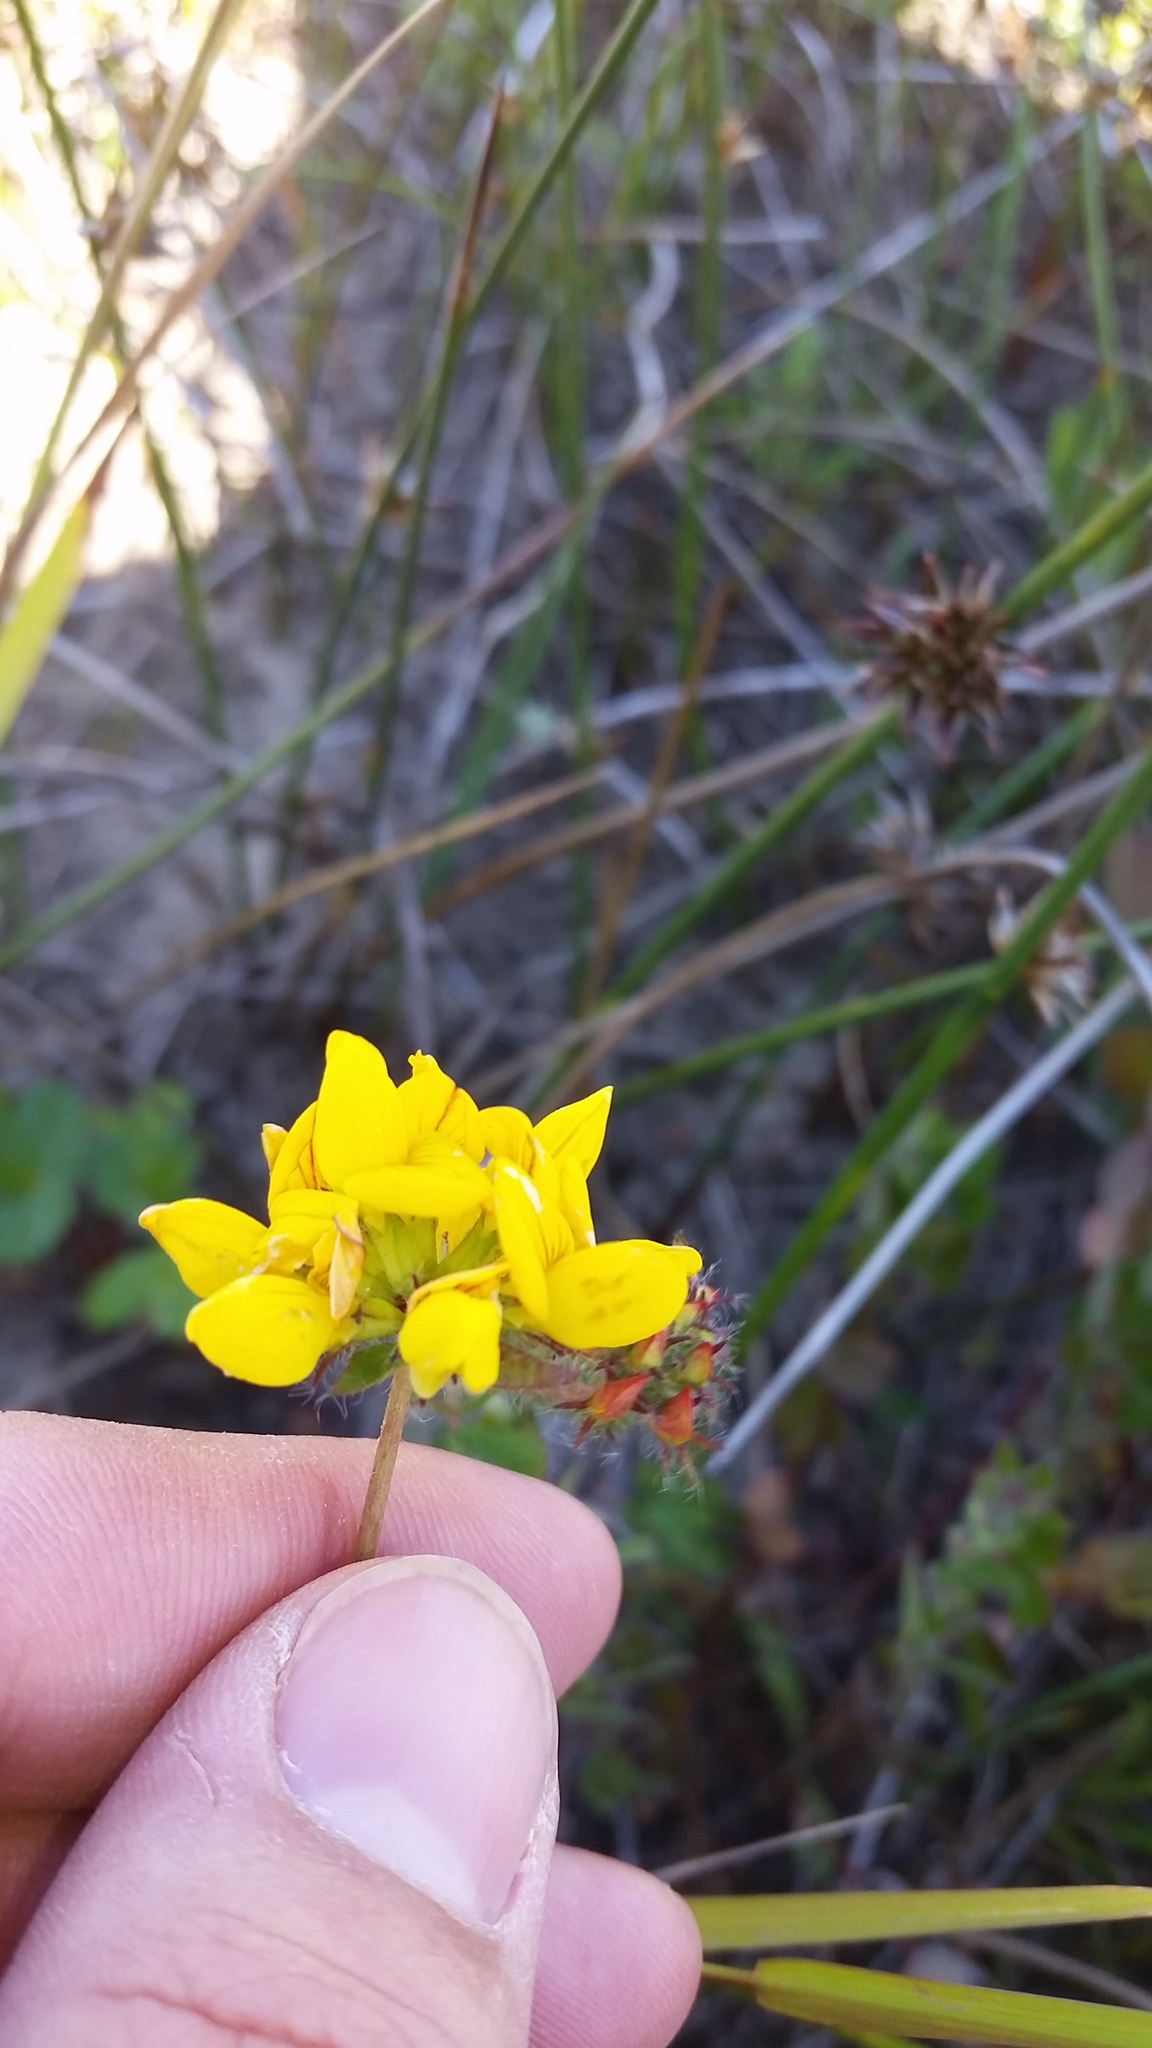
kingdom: Plantae
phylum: Tracheophyta
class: Magnoliopsida
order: Fabales
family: Fabaceae
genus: Lotus
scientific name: Lotus pedunculatus
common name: Greater birdsfoot-trefoil
